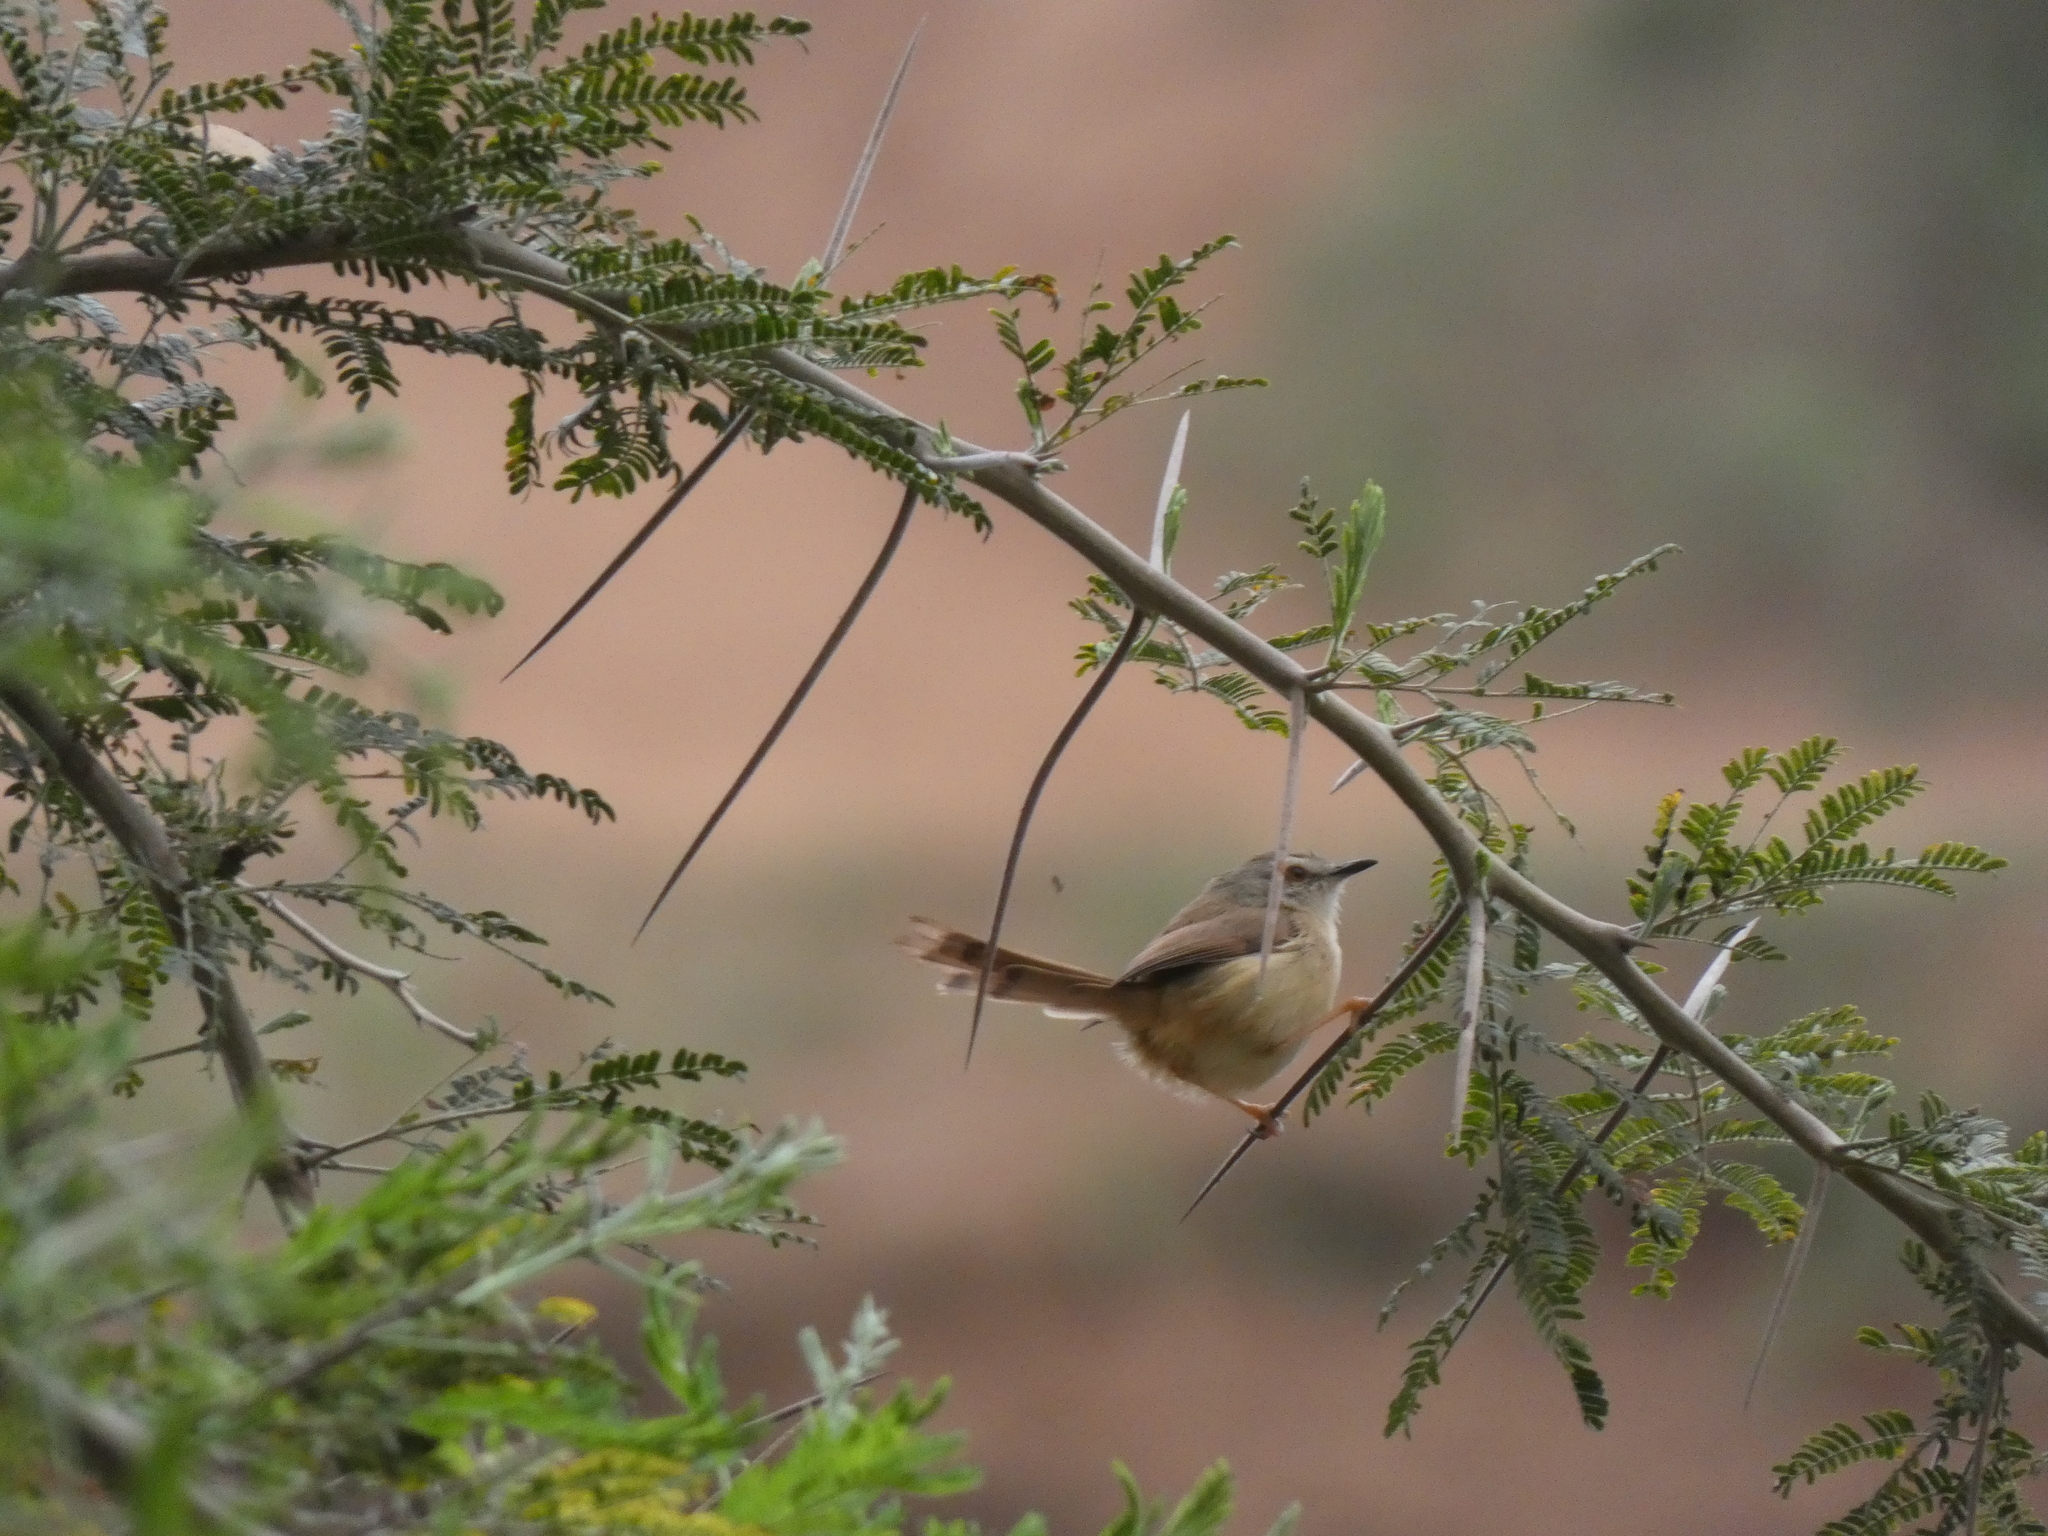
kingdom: Animalia
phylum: Chordata
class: Aves
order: Passeriformes
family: Cisticolidae
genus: Prinia
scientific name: Prinia subflava
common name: Tawny-flanked prinia
